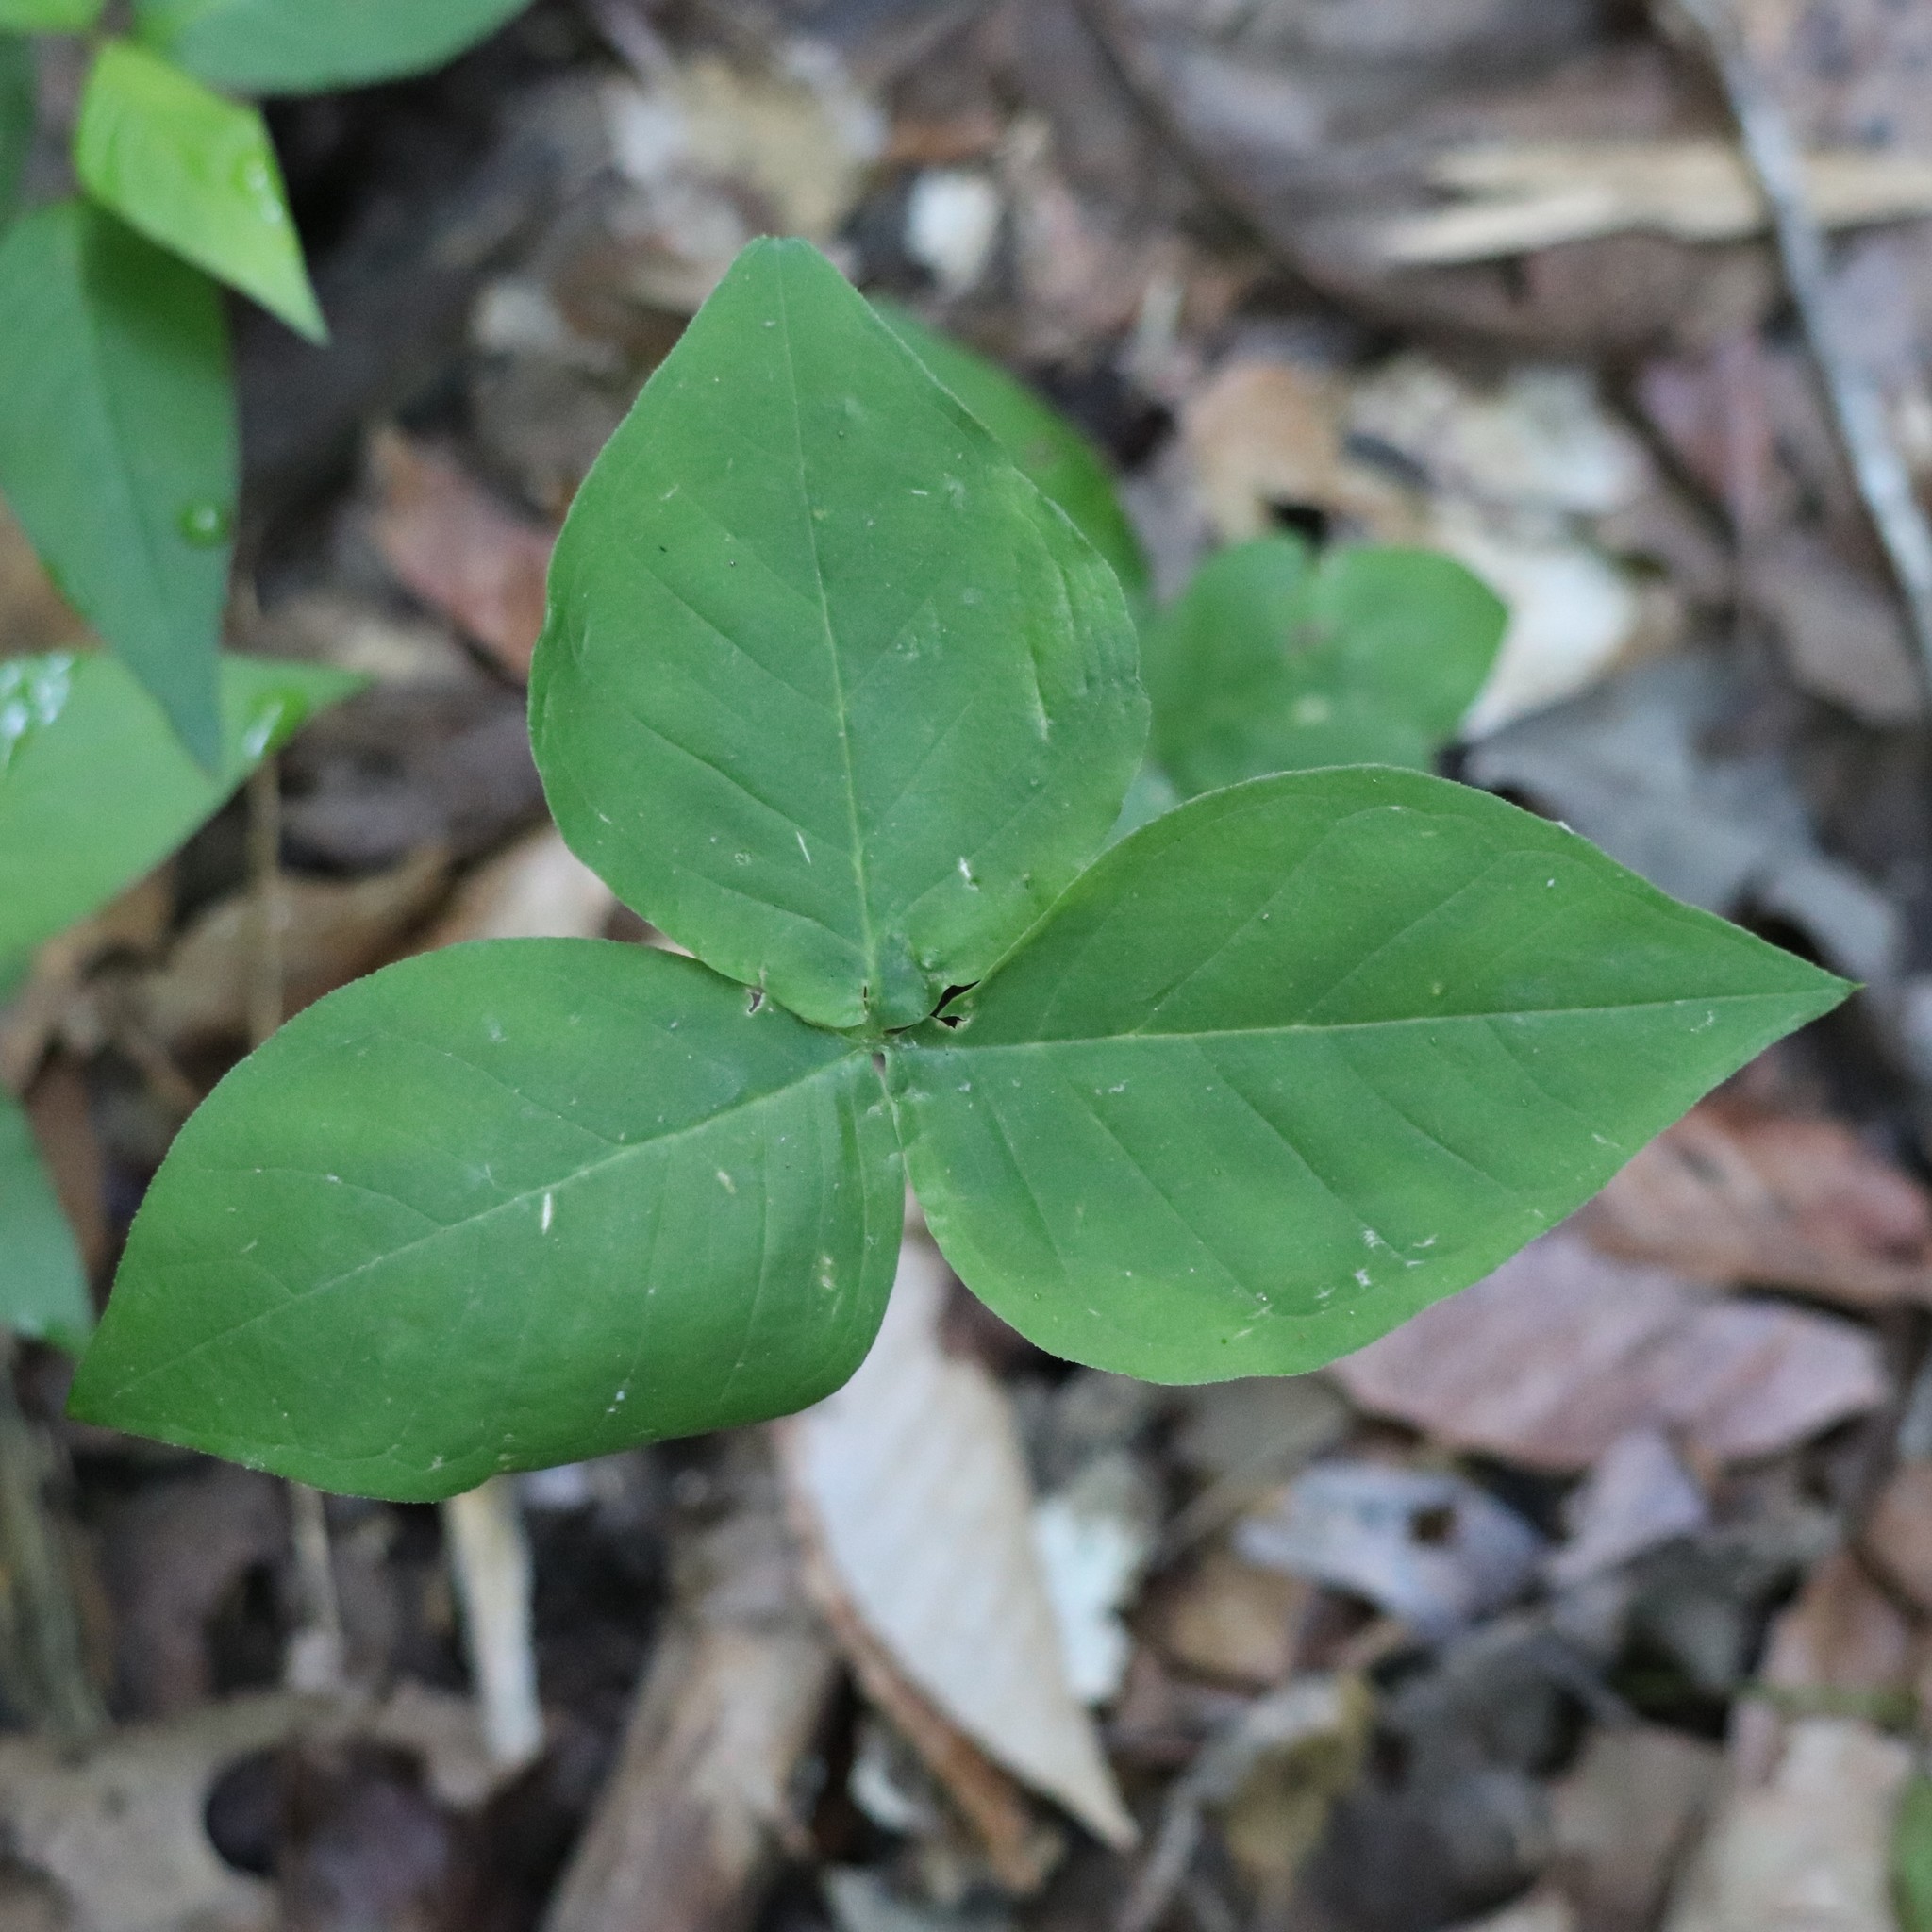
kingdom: Plantae
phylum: Tracheophyta
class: Liliopsida
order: Alismatales
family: Araceae
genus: Arisaema
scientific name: Arisaema triphyllum
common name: Jack-in-the-pulpit
